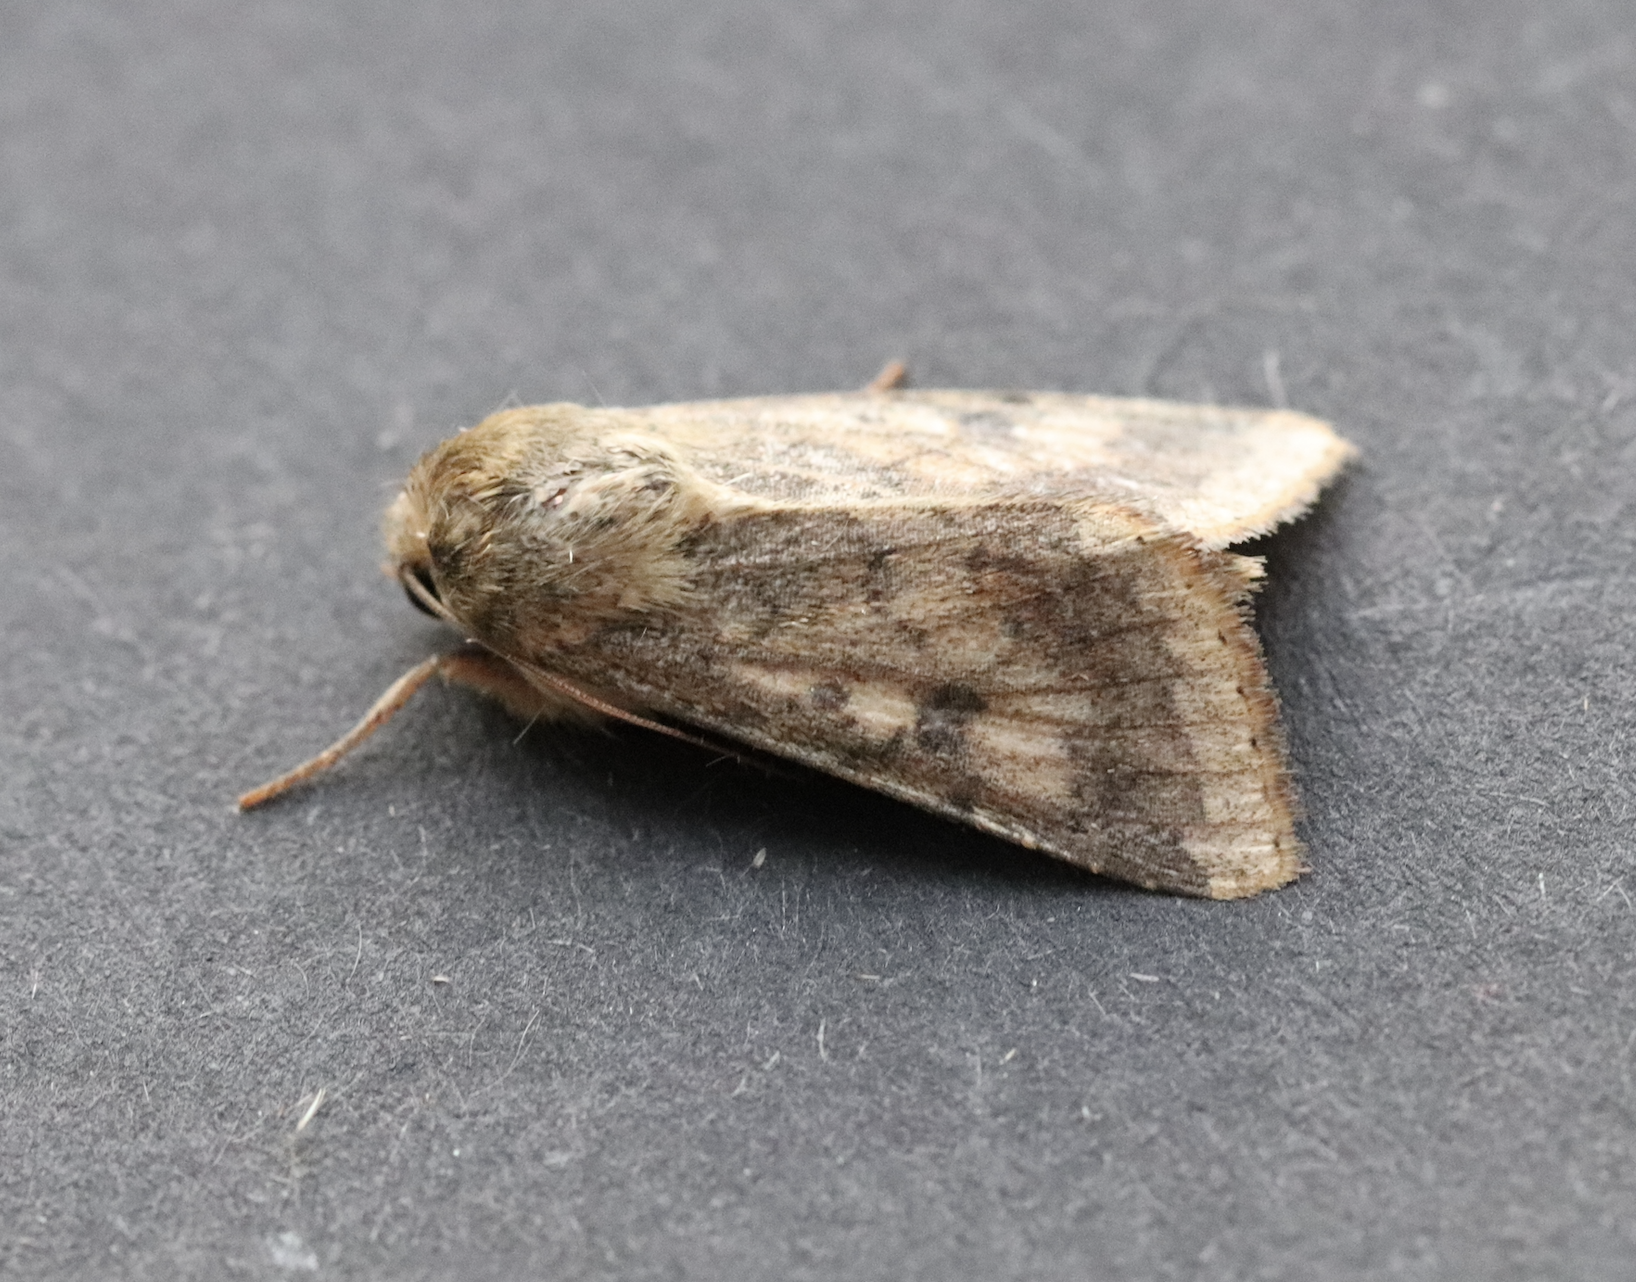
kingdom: Animalia
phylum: Arthropoda
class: Insecta
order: Lepidoptera
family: Noctuidae
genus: Helicoverpa
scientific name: Helicoverpa armigera
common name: Cotton bollworm
